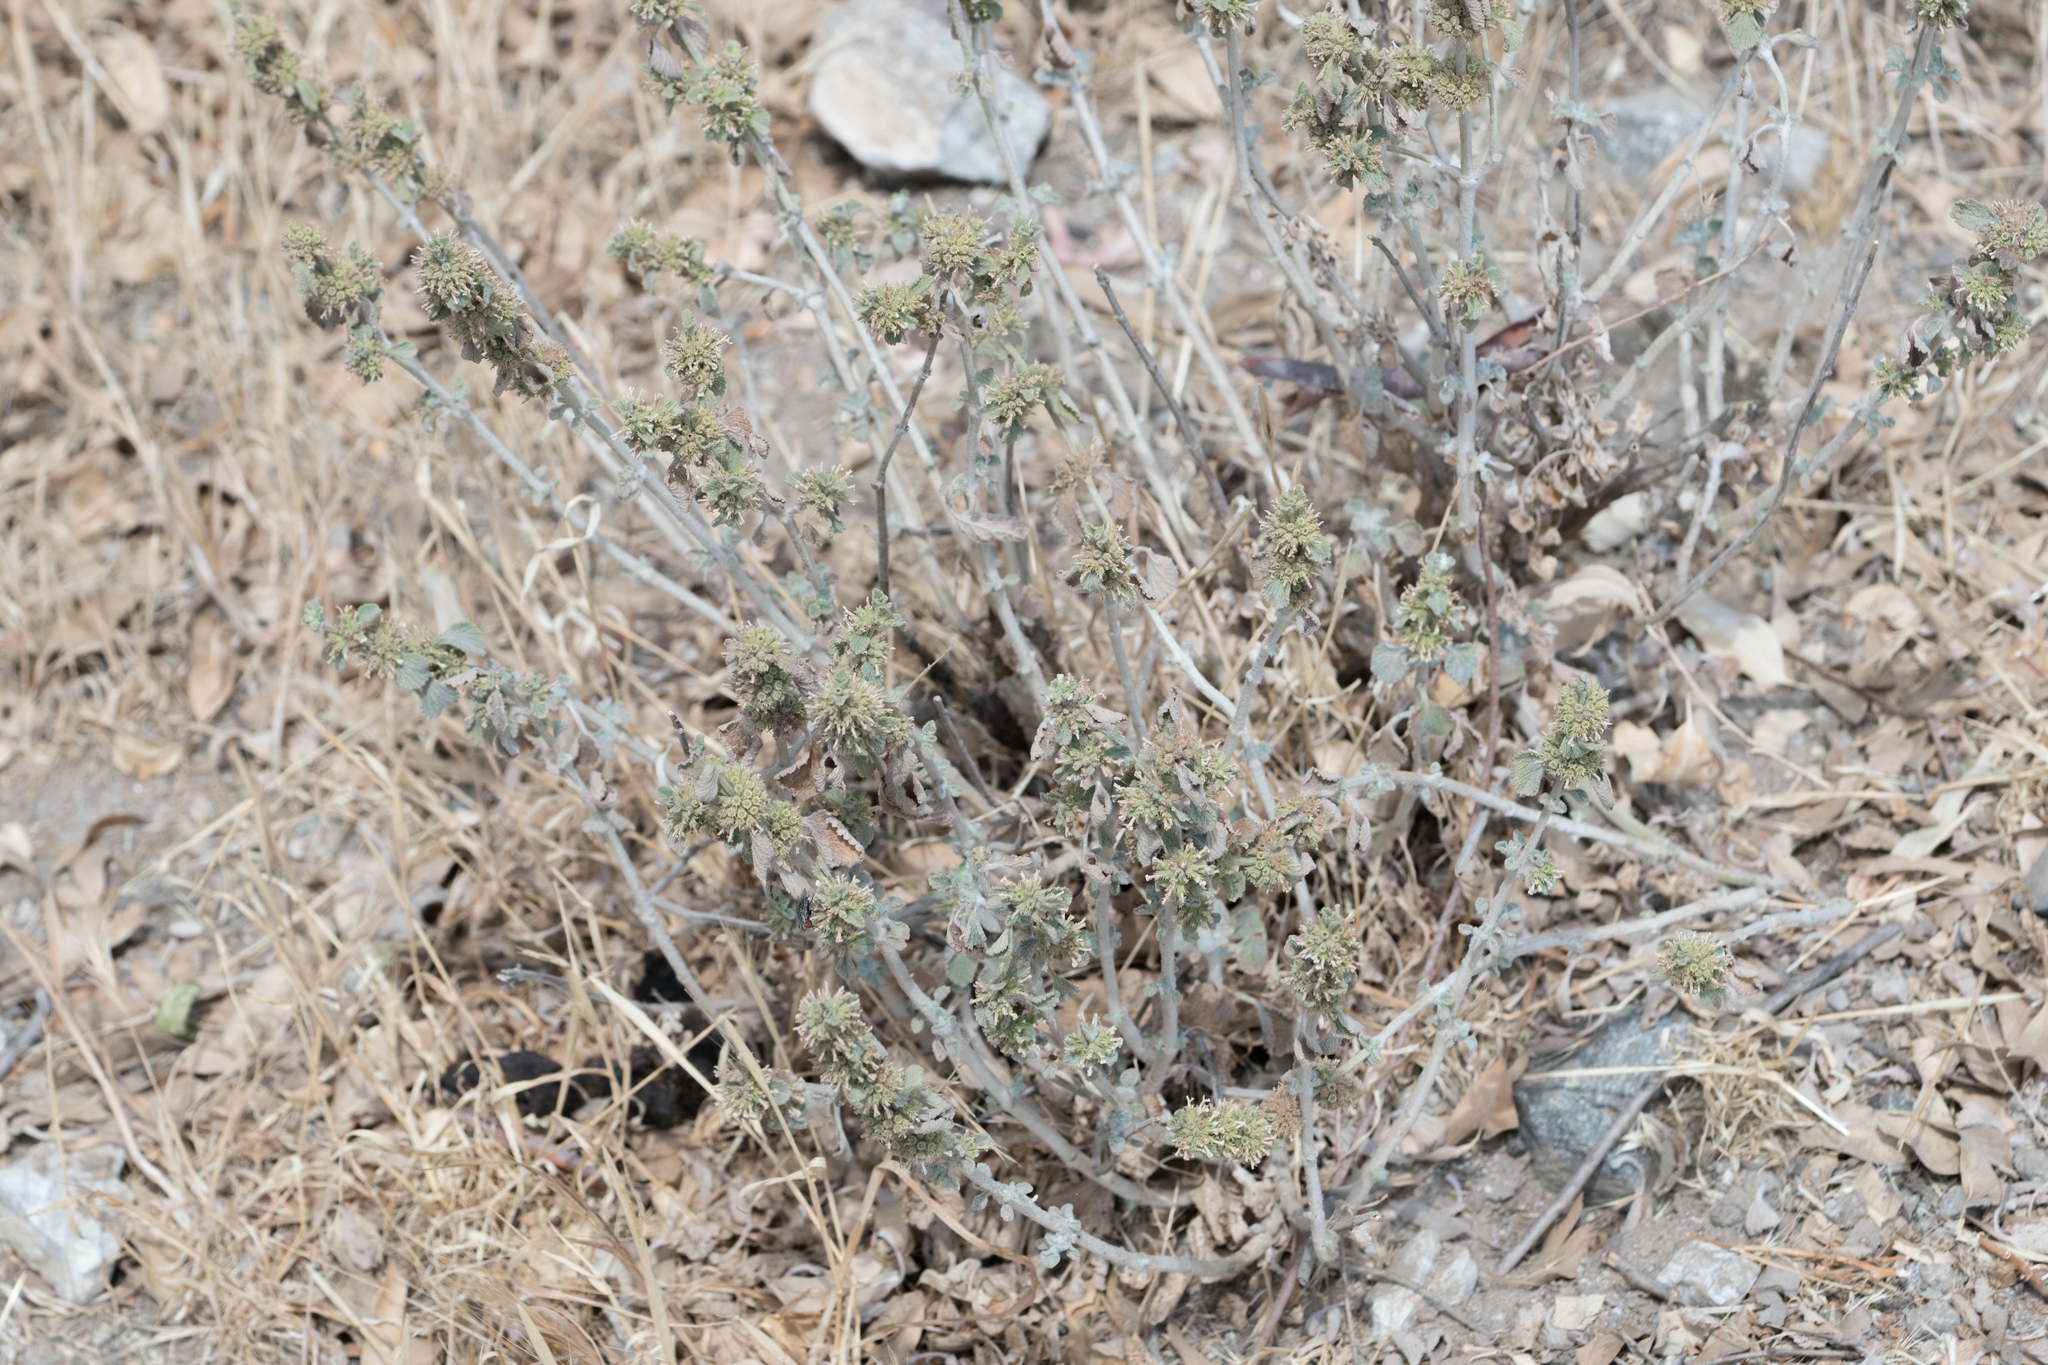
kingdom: Plantae
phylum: Tracheophyta
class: Magnoliopsida
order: Lamiales
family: Lamiaceae
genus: Marrubium
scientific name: Marrubium vulgare
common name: Horehound
